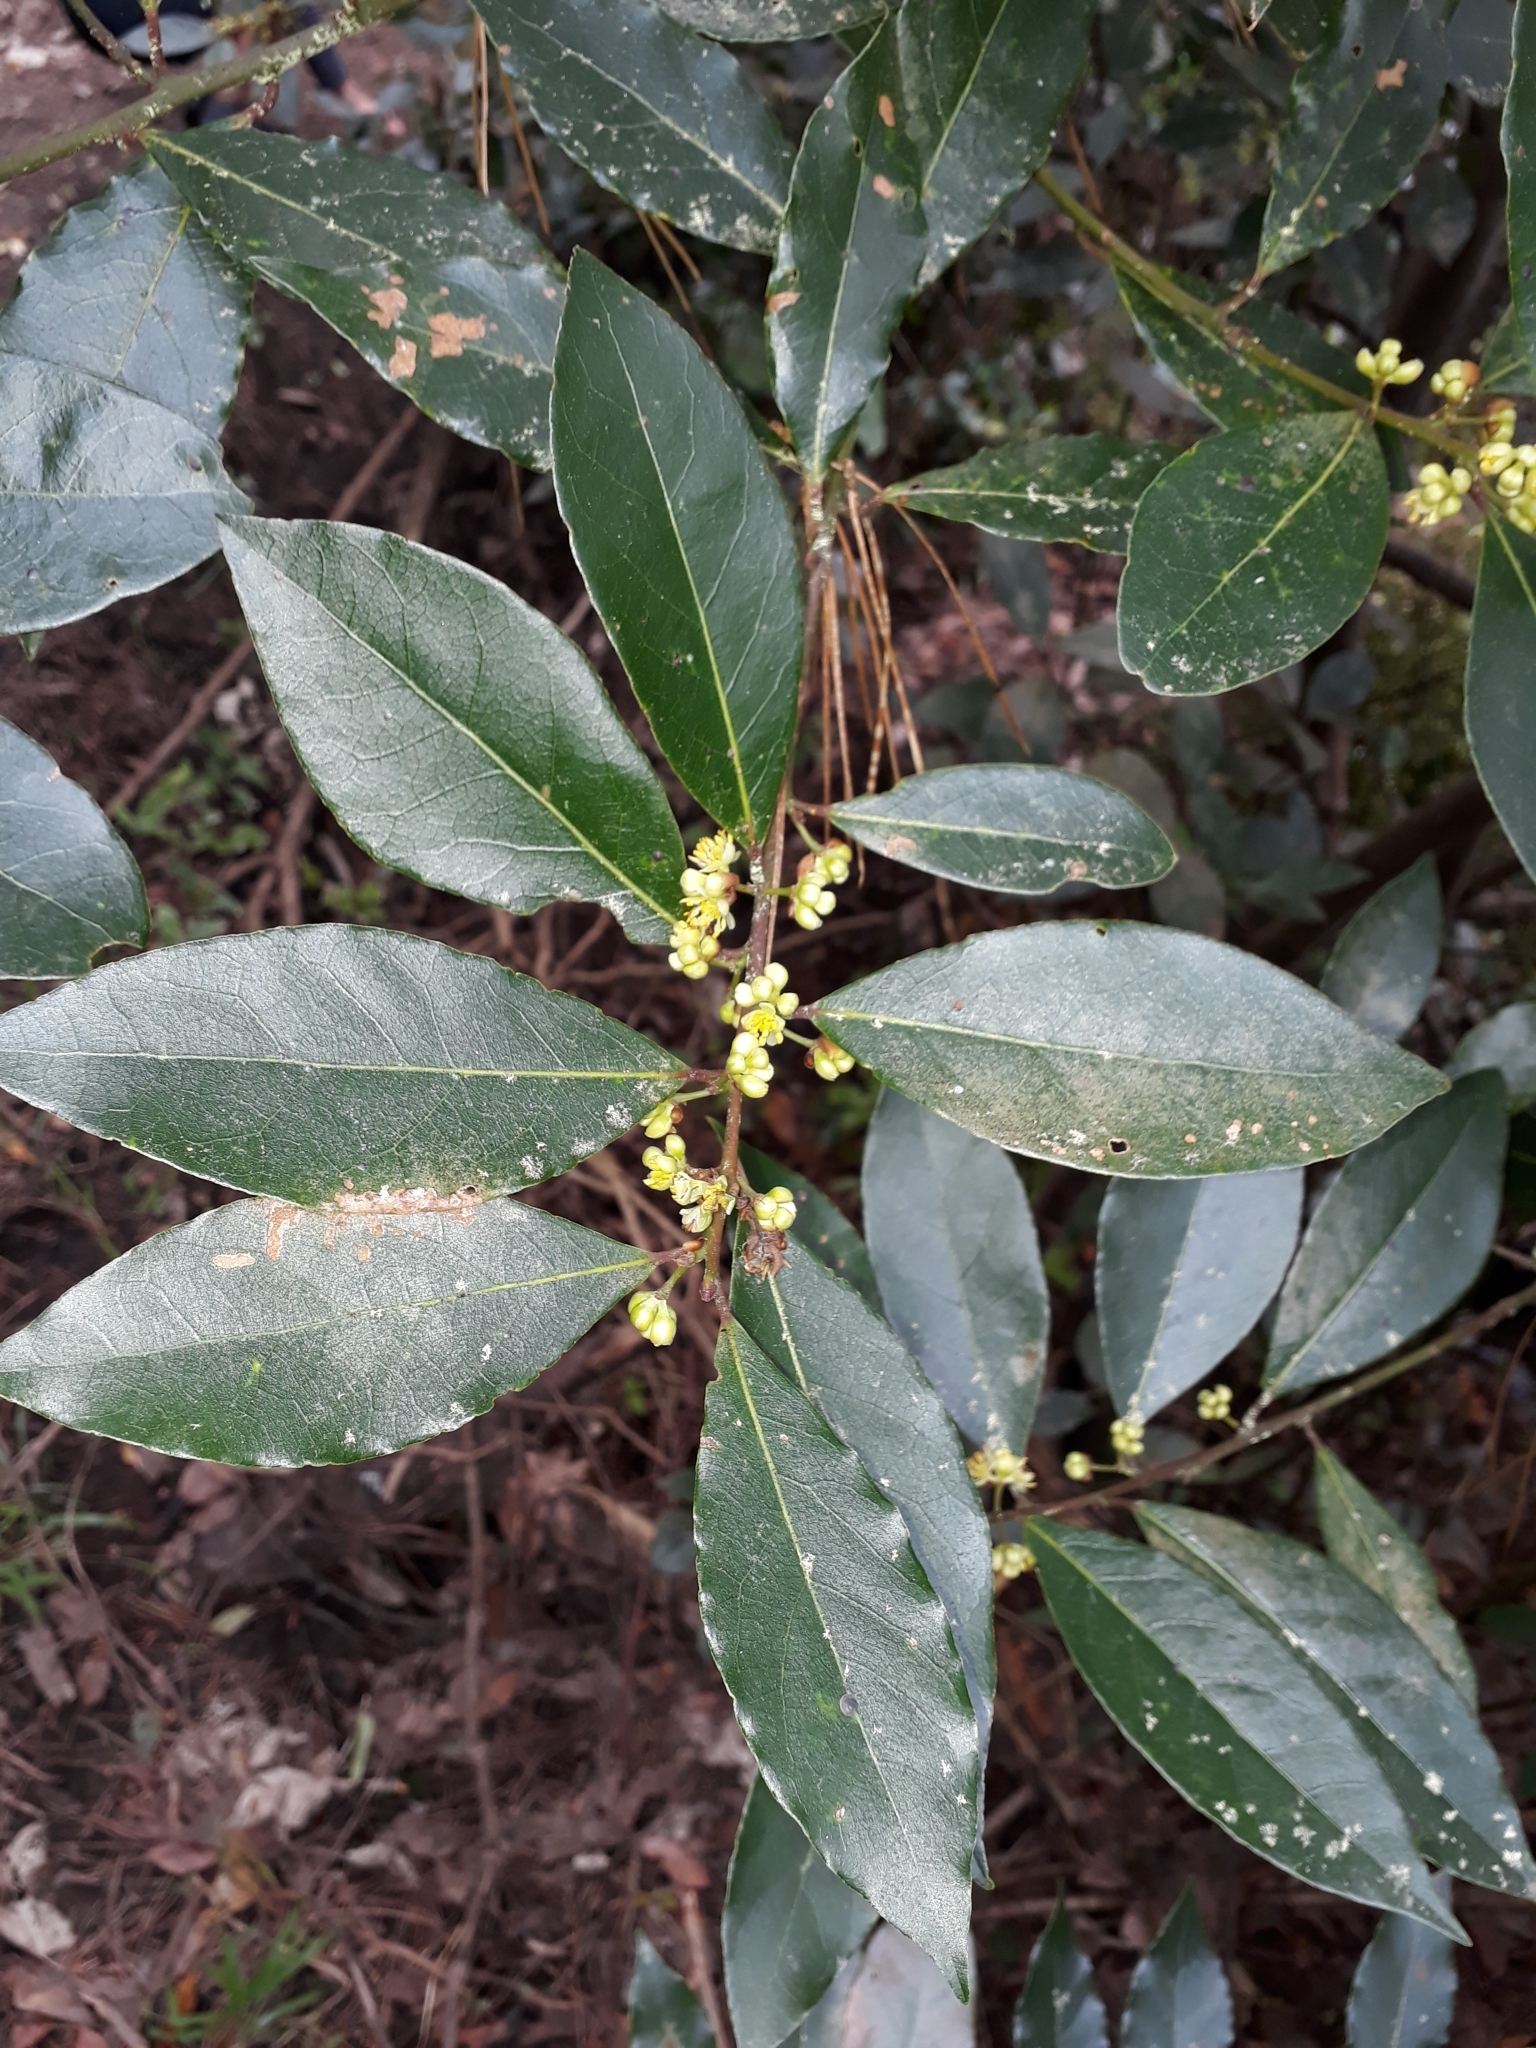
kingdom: Plantae
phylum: Tracheophyta
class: Magnoliopsida
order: Laurales
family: Lauraceae
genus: Laurus
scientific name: Laurus nobilis
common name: Bay
